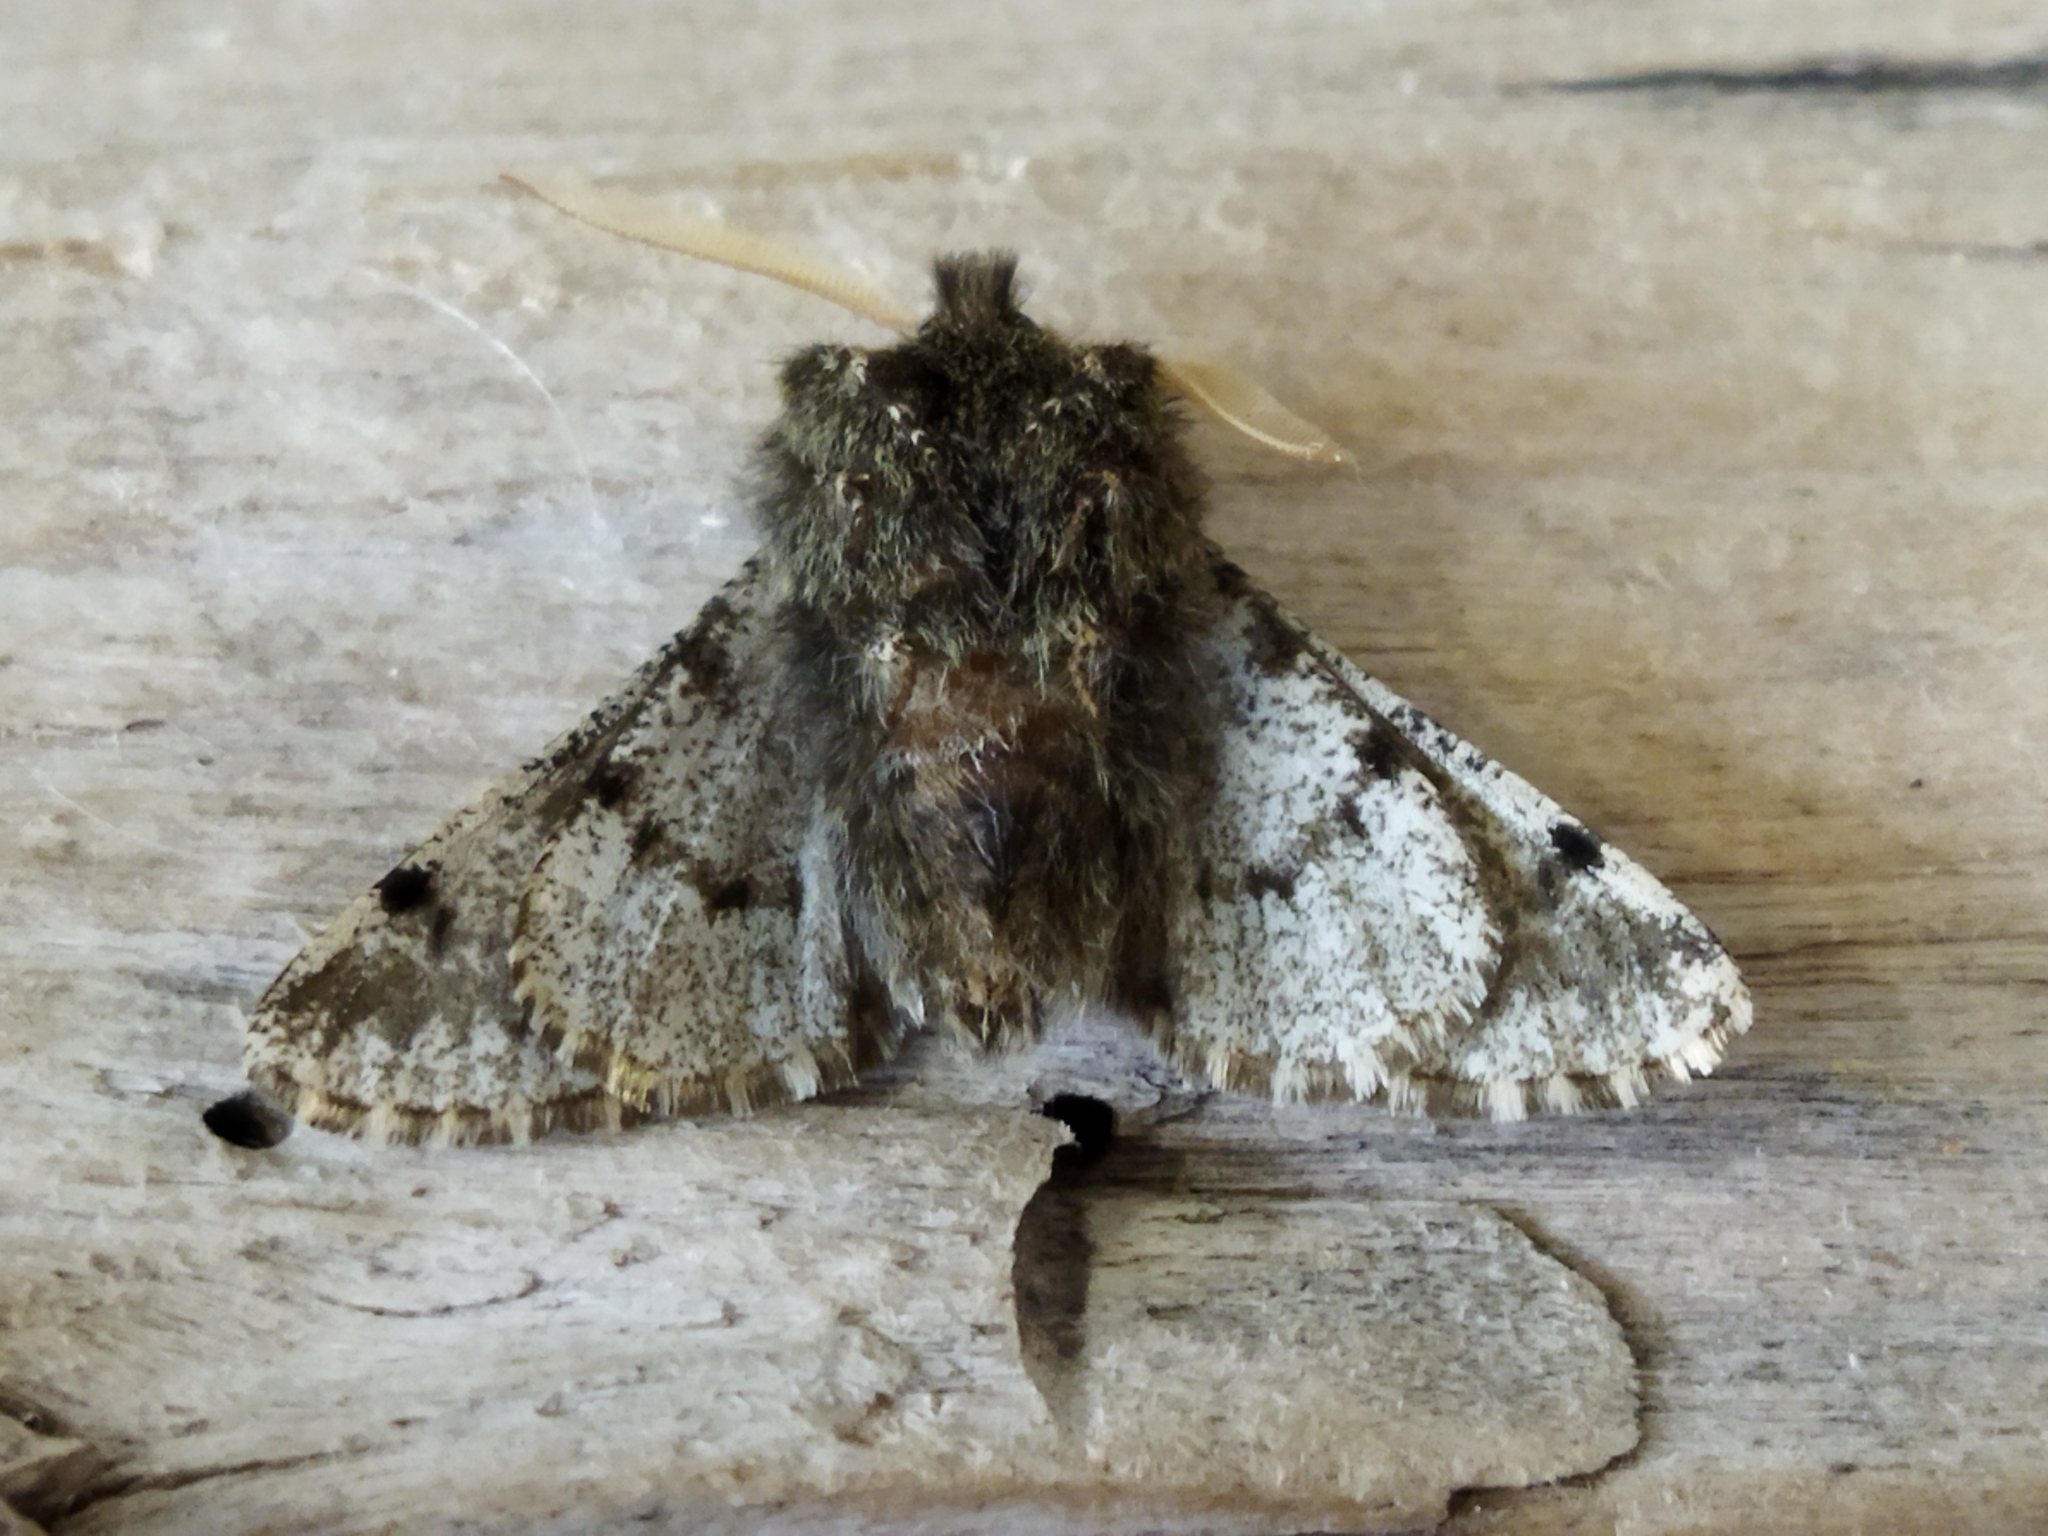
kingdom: Animalia
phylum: Arthropoda
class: Insecta
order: Lepidoptera
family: Geometridae
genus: Apocheima
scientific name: Apocheima hispidaria
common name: Small brindled beauty
